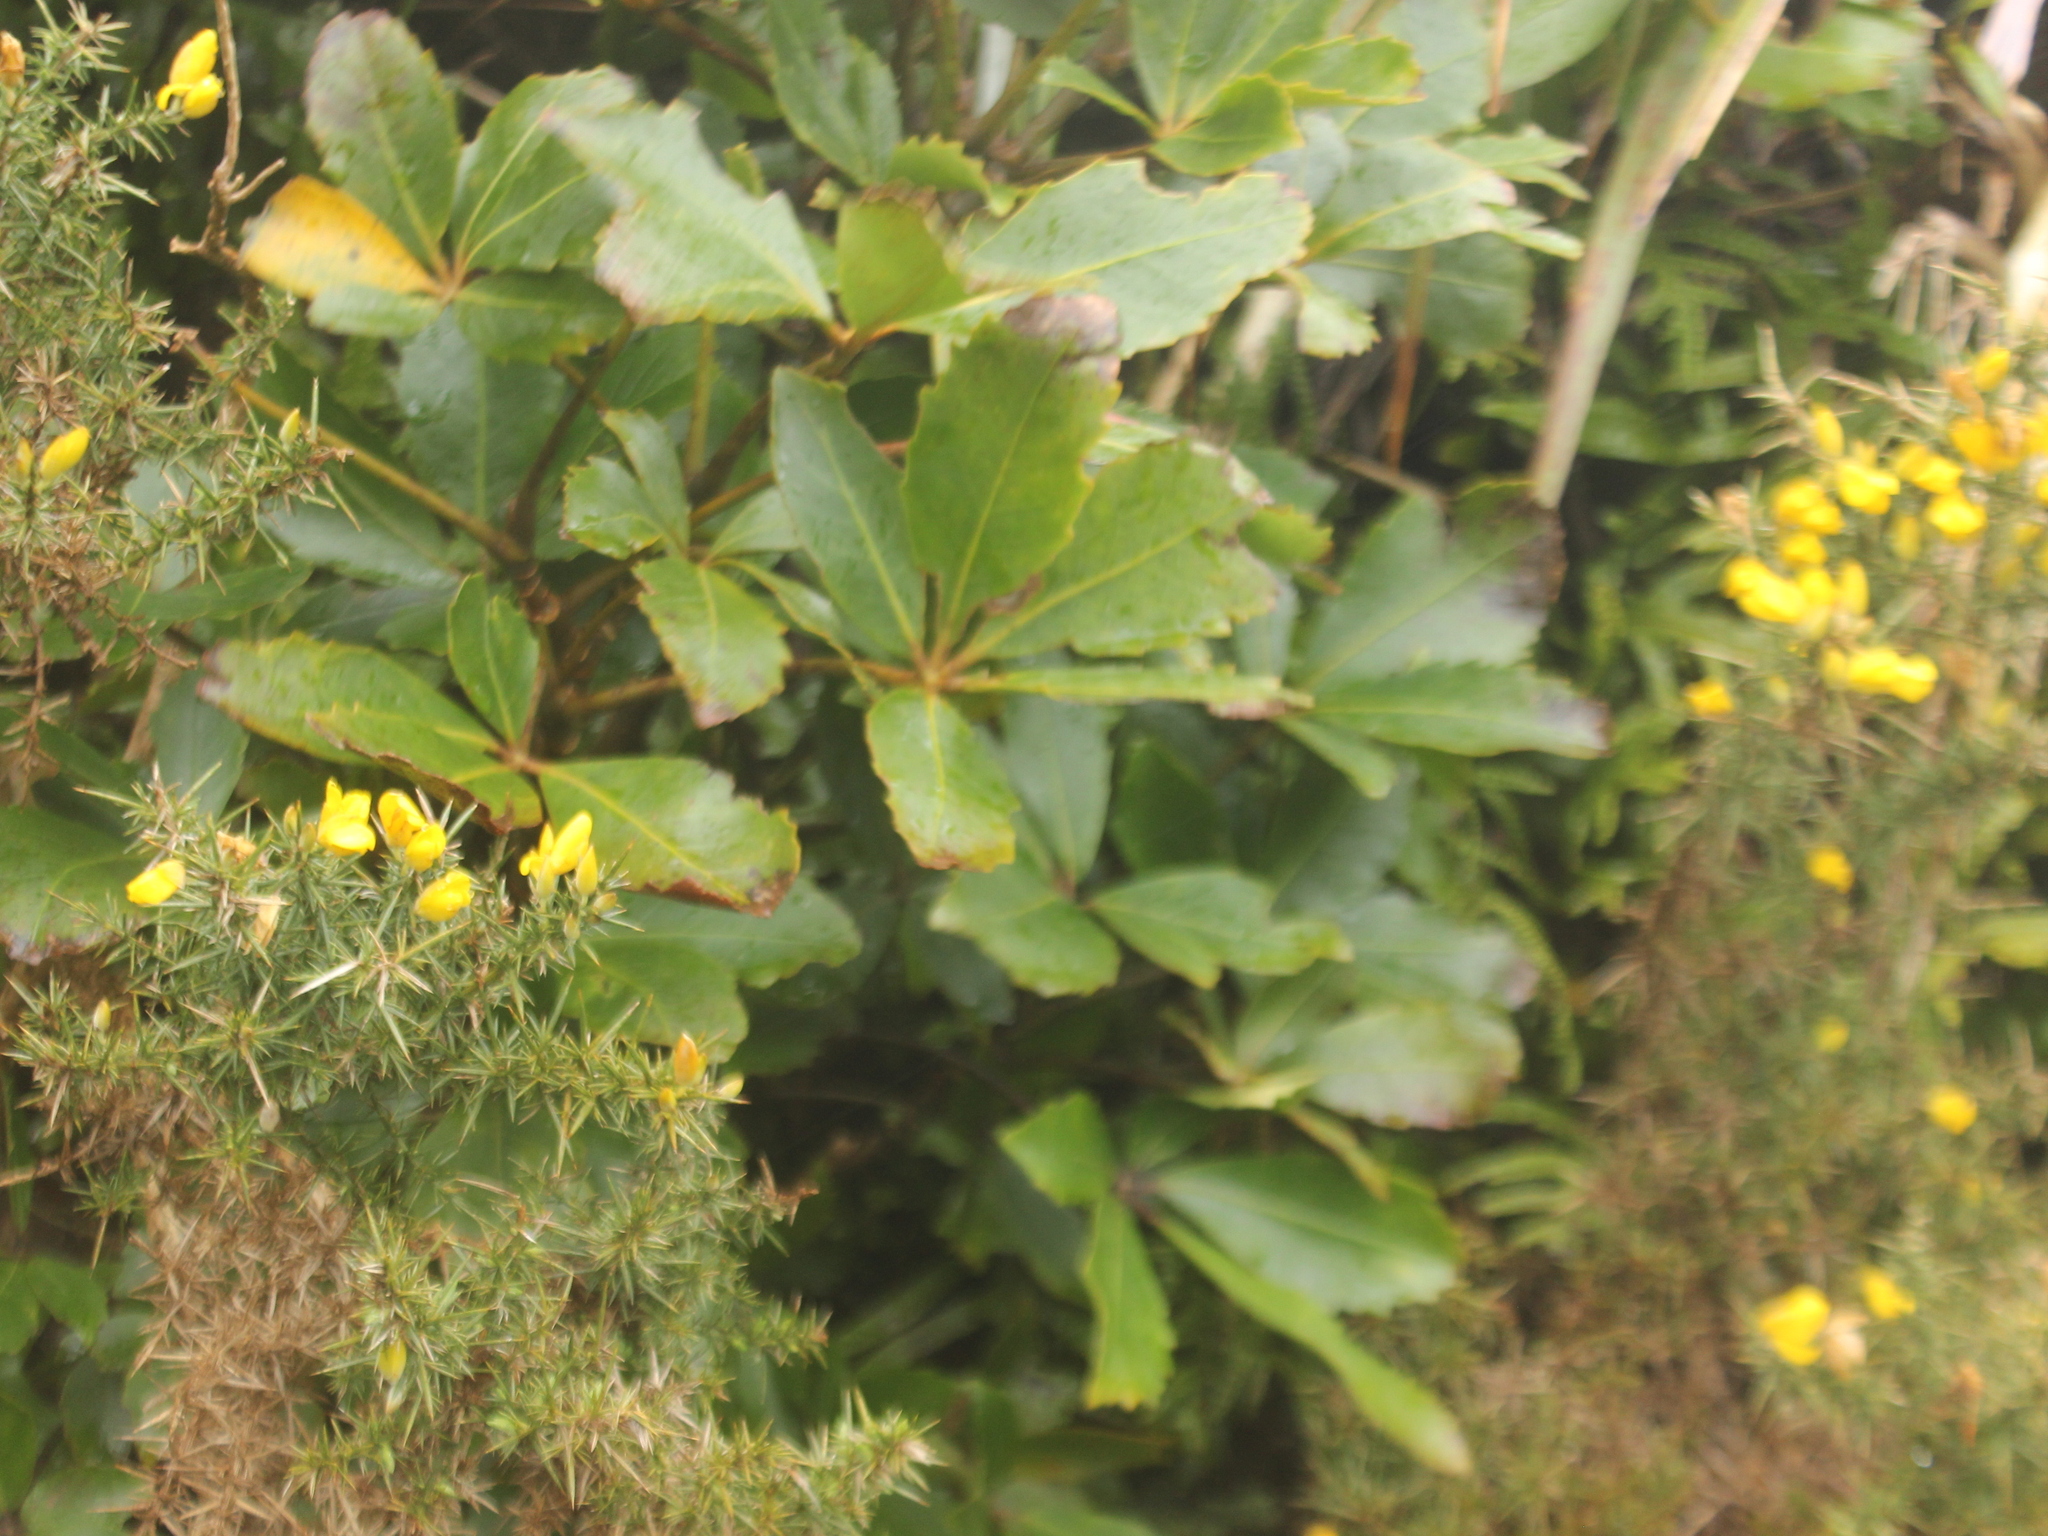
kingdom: Plantae
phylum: Tracheophyta
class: Magnoliopsida
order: Apiales
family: Araliaceae
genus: Neopanax
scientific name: Neopanax colensoi
